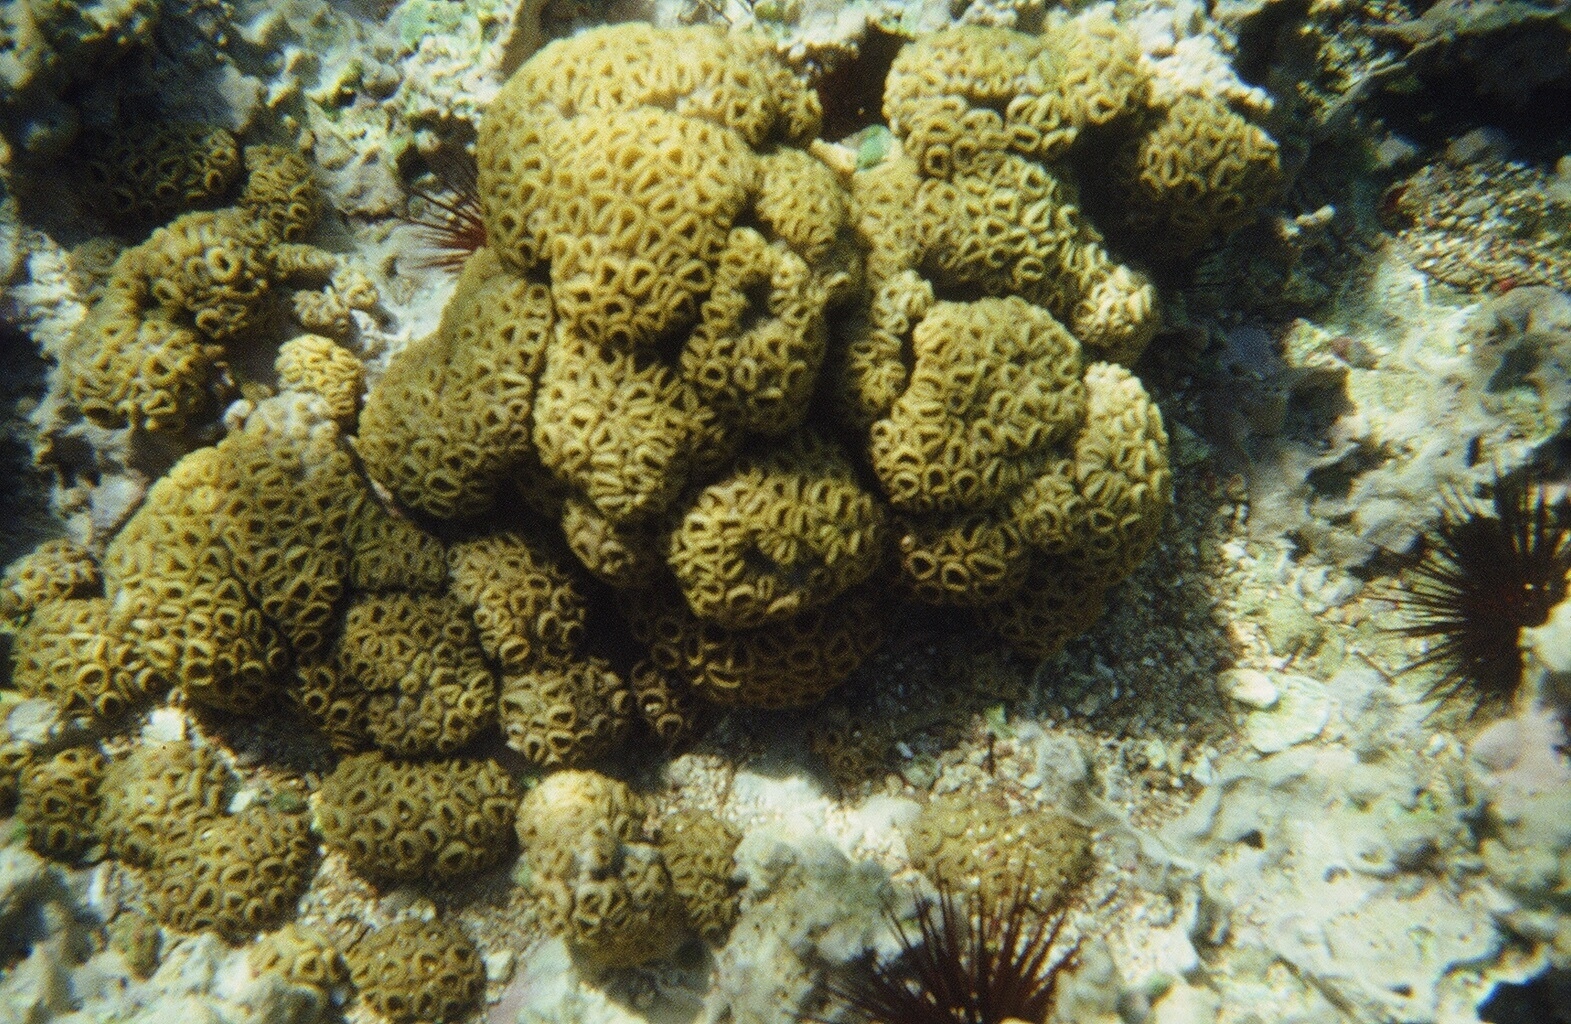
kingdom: Animalia
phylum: Cnidaria
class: Anthozoa
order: Zoantharia
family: Sphenopidae
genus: Palythoa
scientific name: Palythoa caribaeorum
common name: Encrusting colonial anemone
